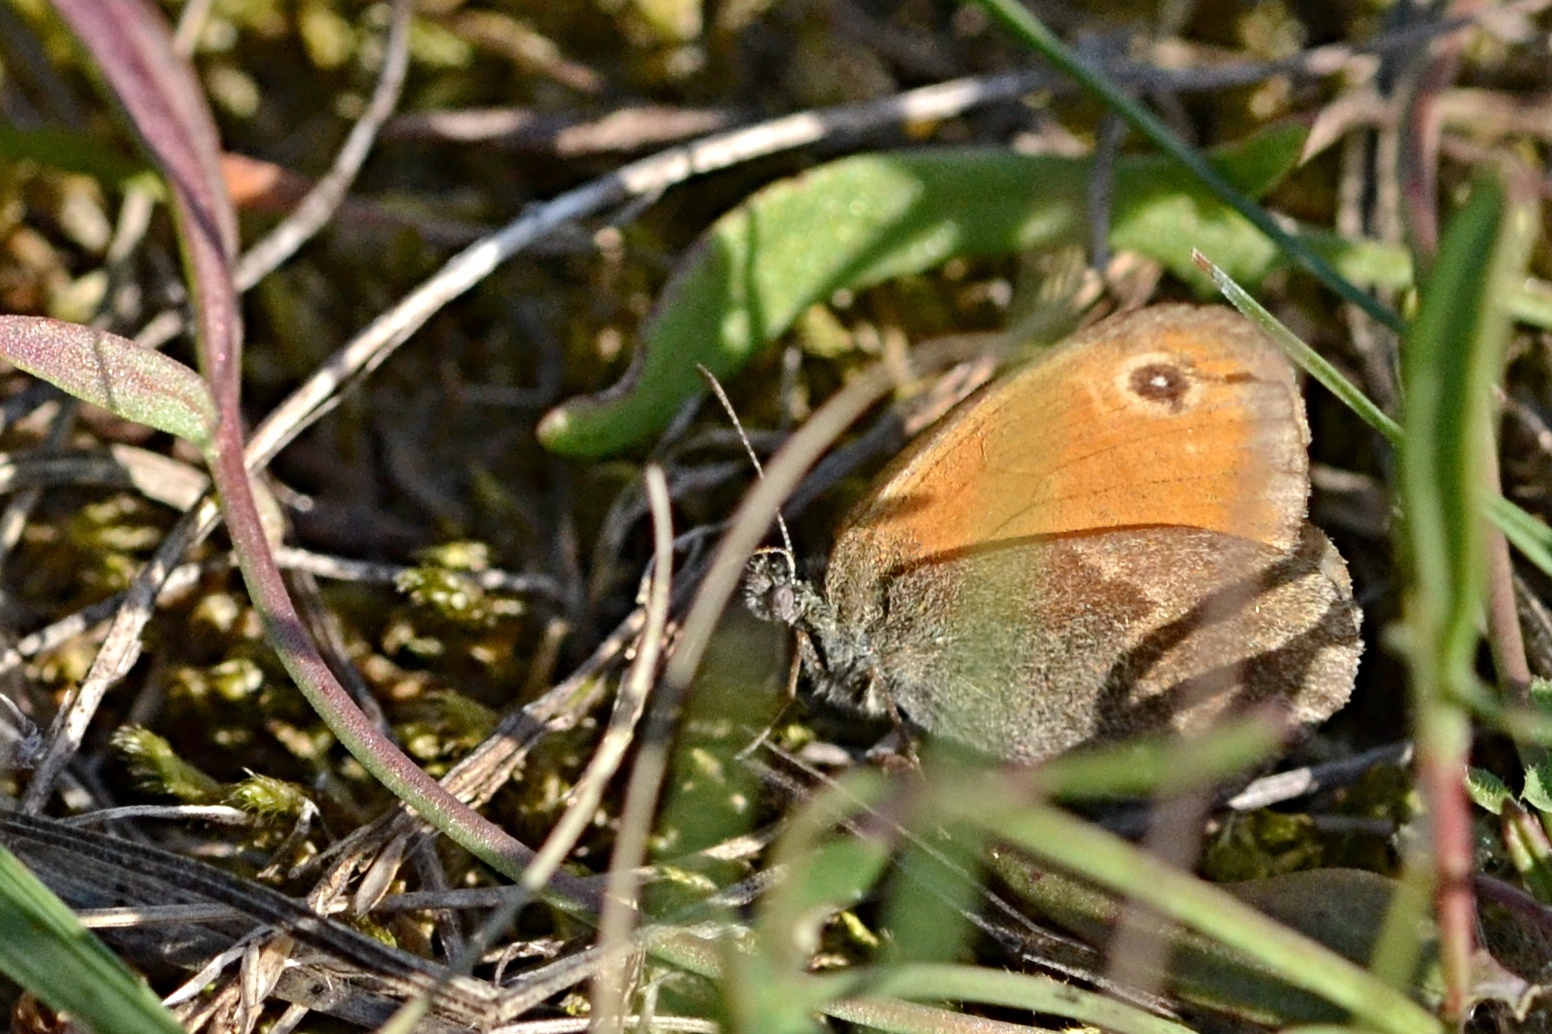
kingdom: Animalia
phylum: Arthropoda
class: Insecta
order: Lepidoptera
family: Nymphalidae
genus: Coenonympha
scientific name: Coenonympha pamphilus
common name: Small heath
